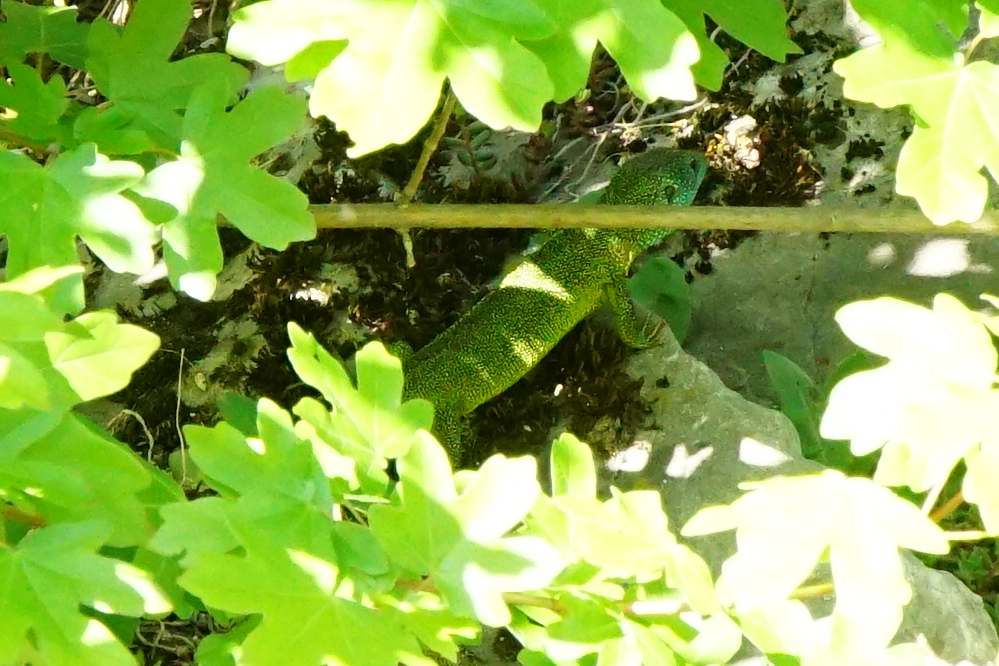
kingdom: Animalia
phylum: Chordata
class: Squamata
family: Lacertidae
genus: Lacerta
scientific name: Lacerta viridis
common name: European green lizard
